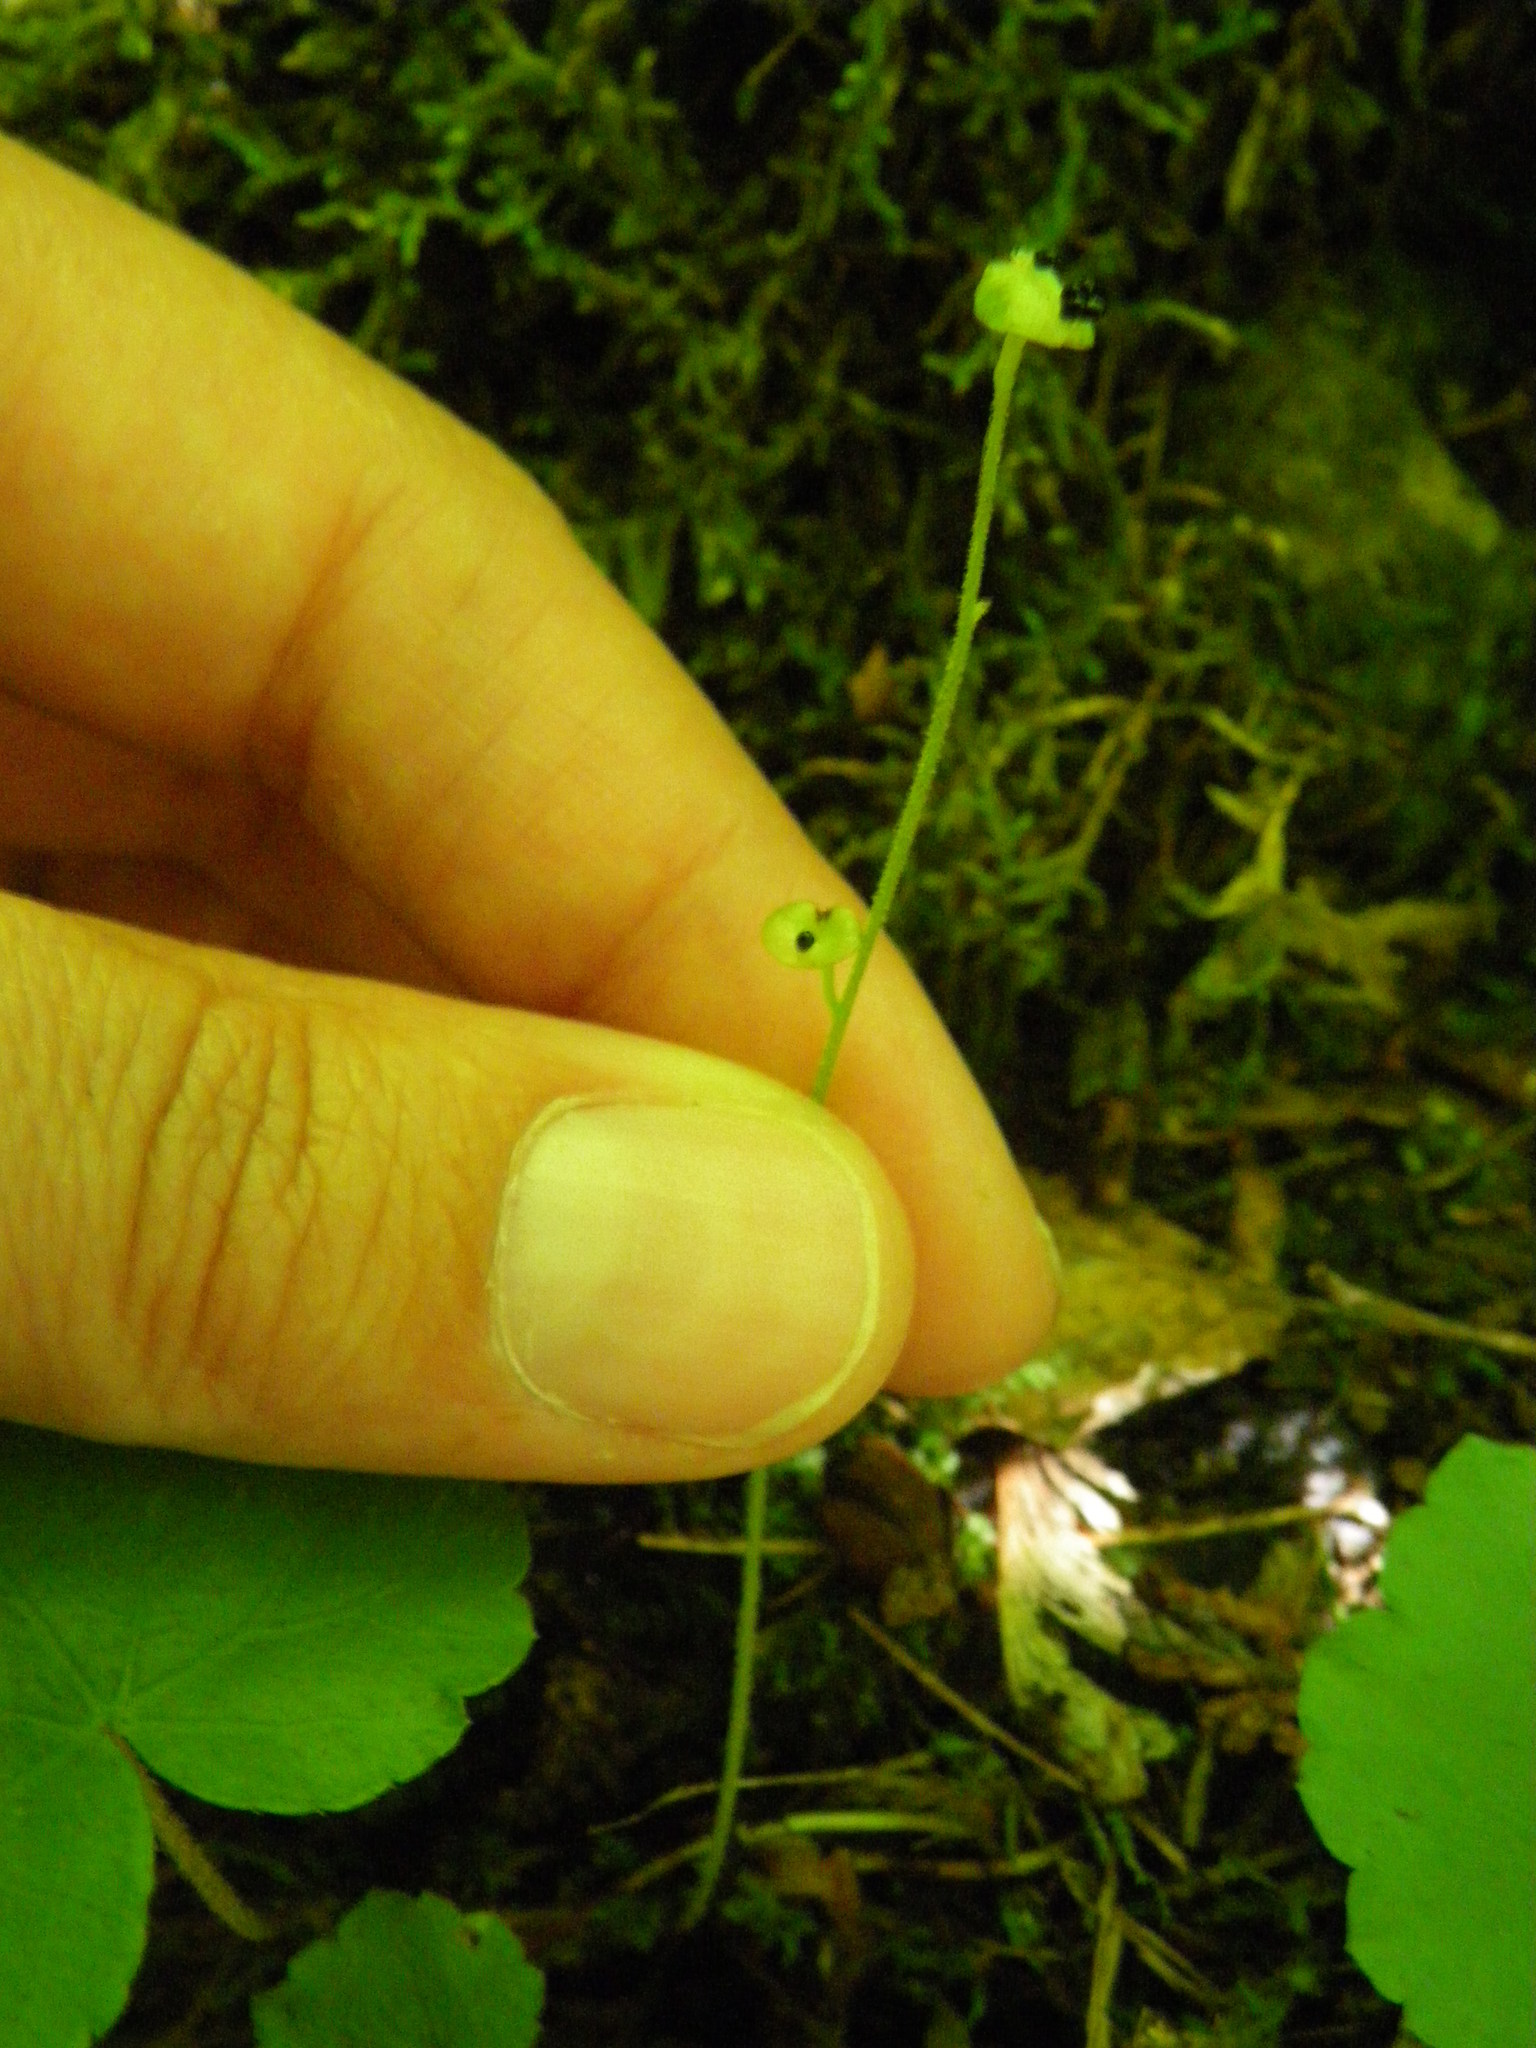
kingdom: Plantae
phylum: Tracheophyta
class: Magnoliopsida
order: Saxifragales
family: Saxifragaceae
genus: Mitella
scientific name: Mitella nuda
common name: Bare-stemmed bishop's-cap
